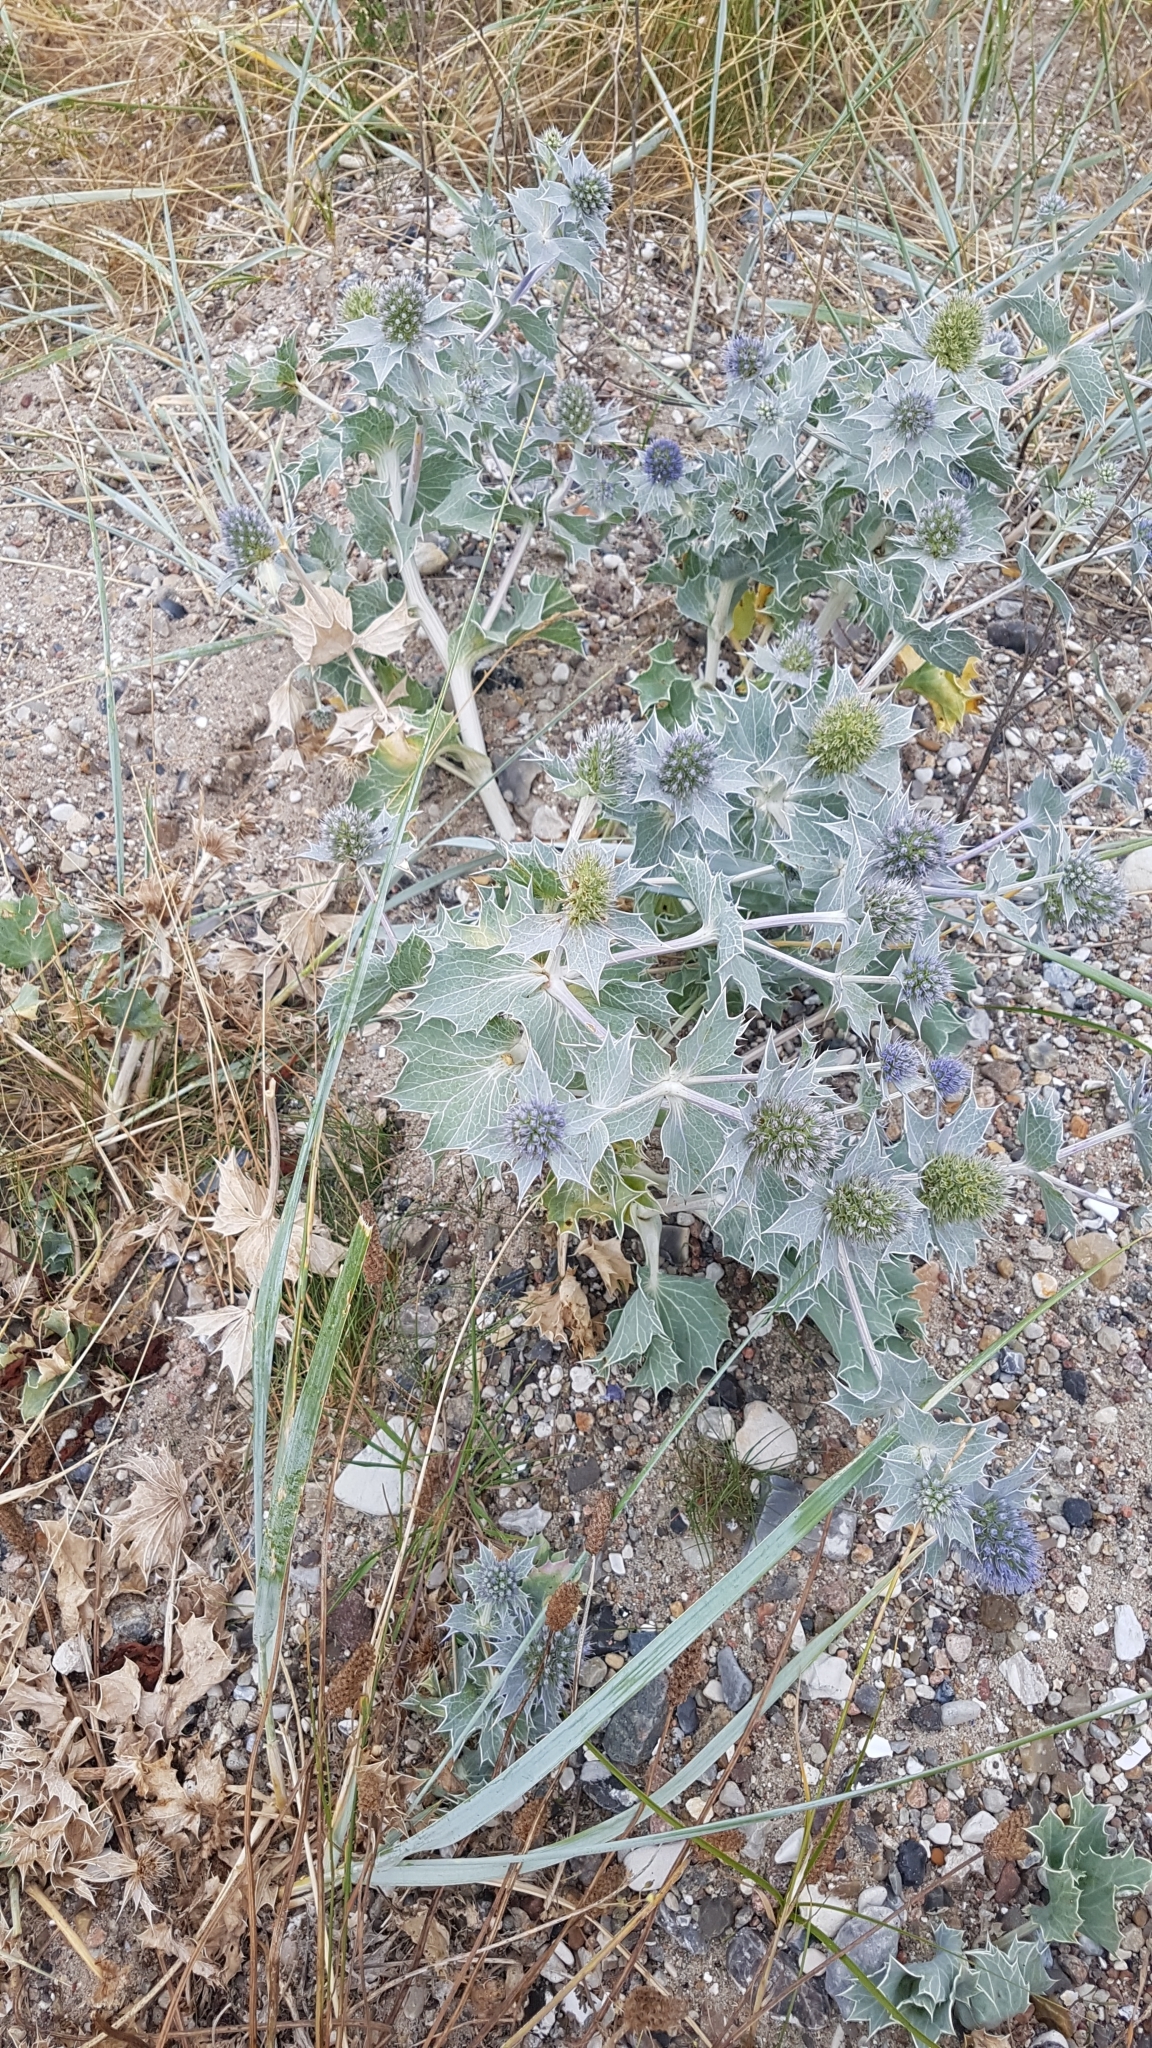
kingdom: Plantae
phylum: Tracheophyta
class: Magnoliopsida
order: Apiales
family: Apiaceae
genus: Eryngium
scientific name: Eryngium maritimum
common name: Sea-holly
